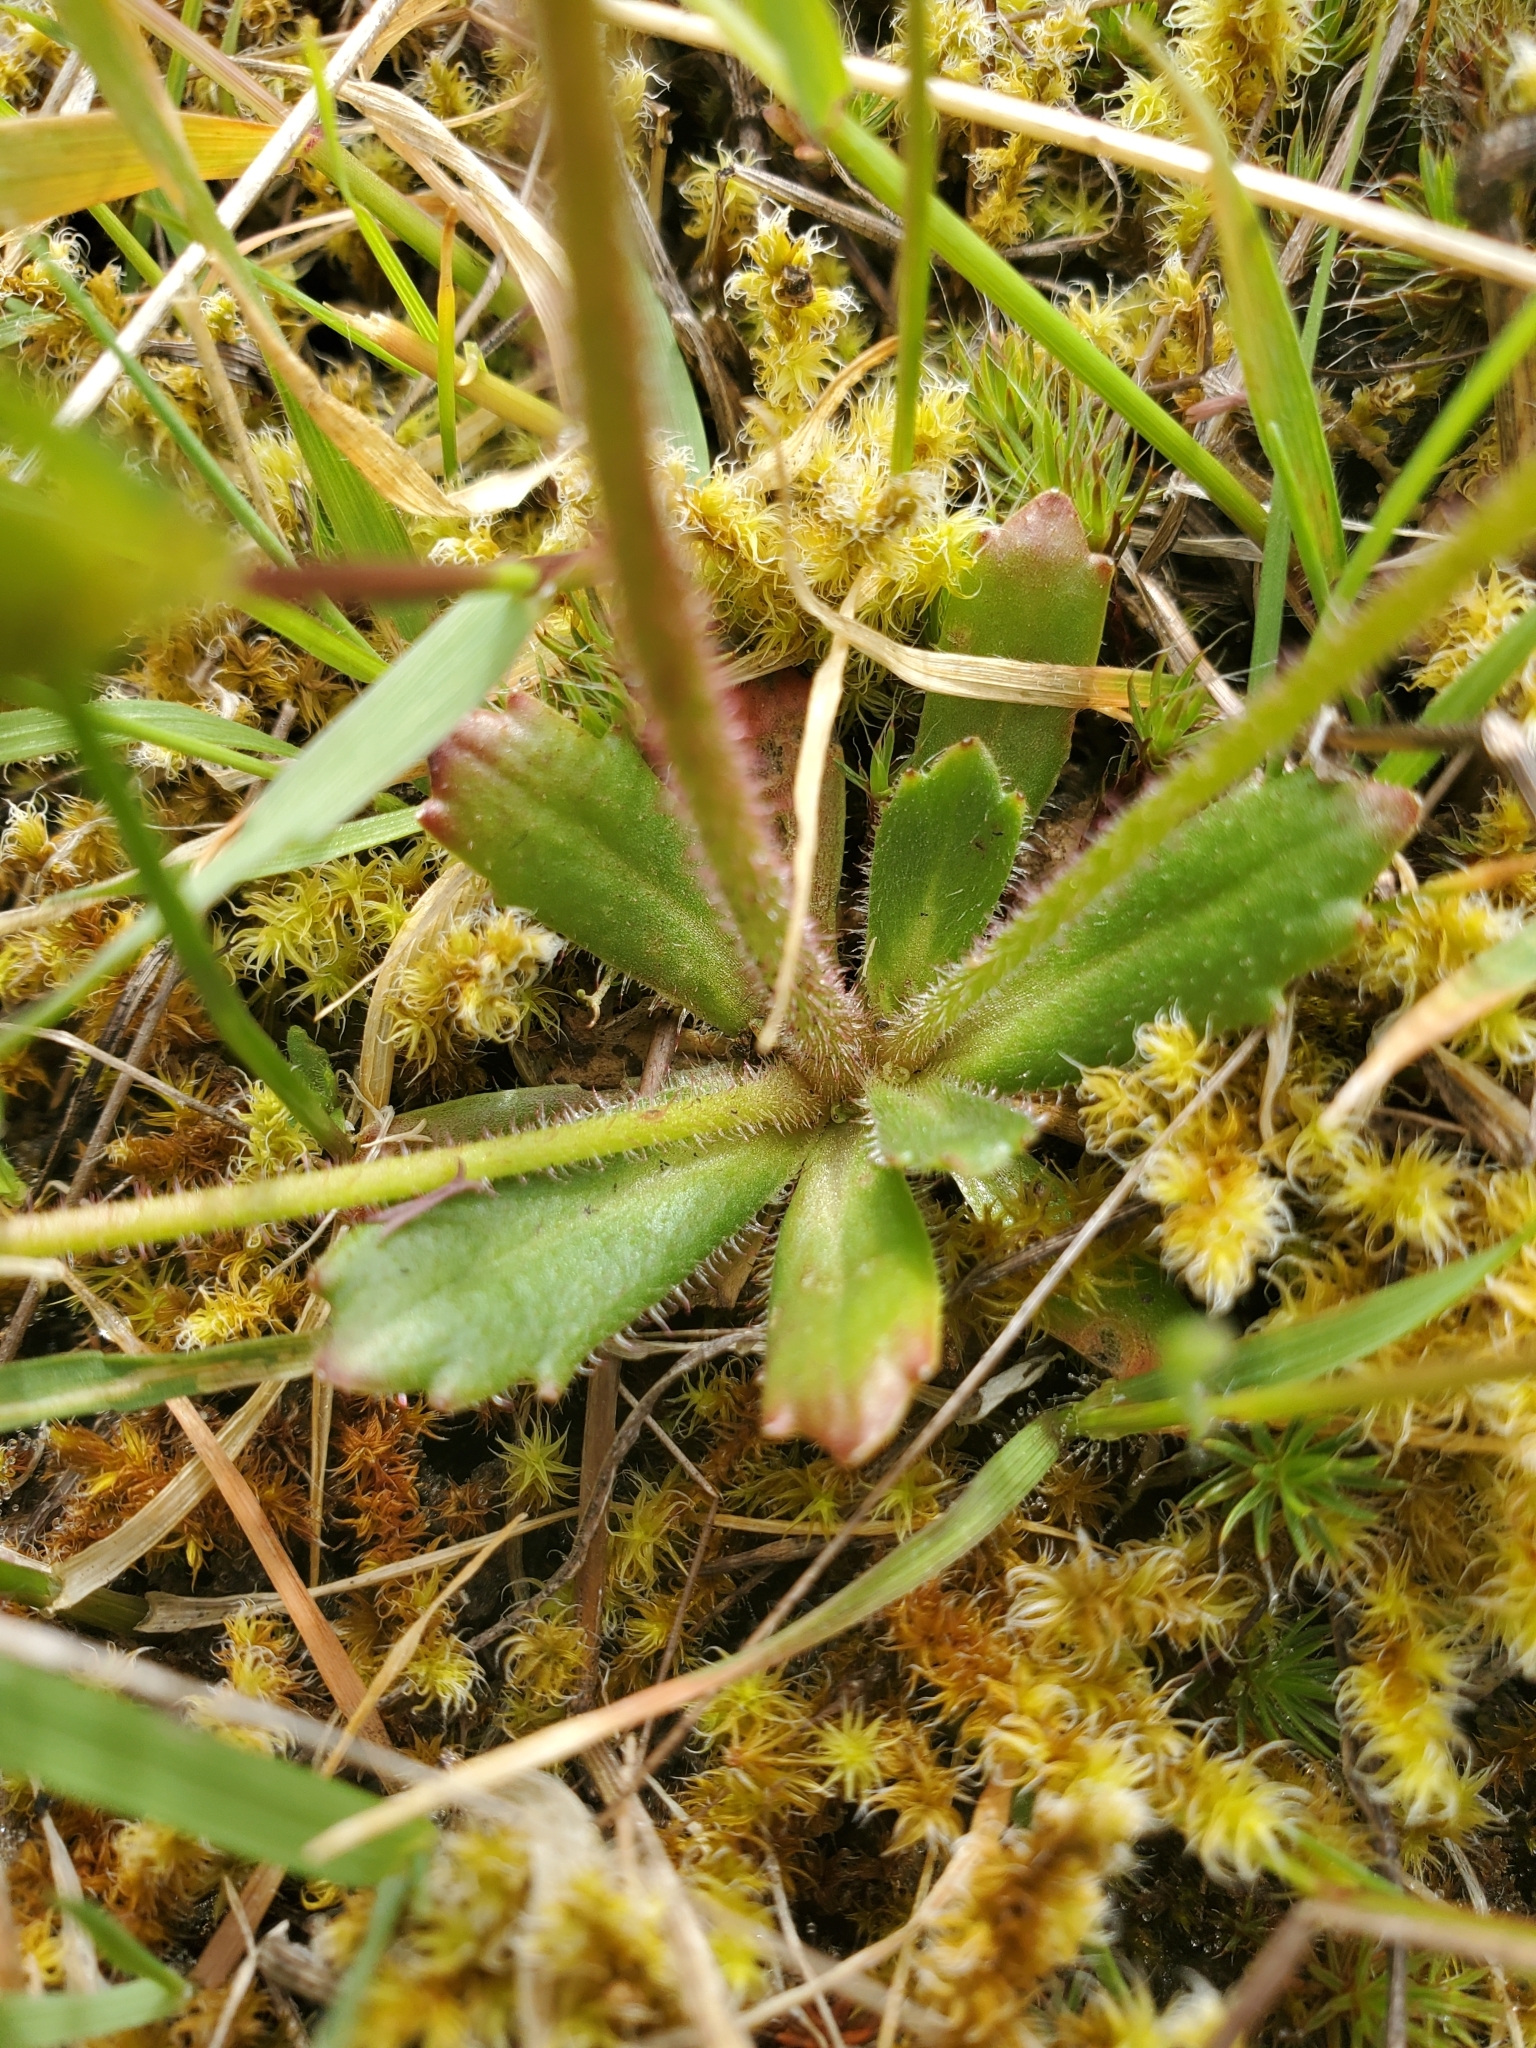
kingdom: Plantae
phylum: Tracheophyta
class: Magnoliopsida
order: Saxifragales
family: Saxifragaceae
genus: Micranthes
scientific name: Micranthes ferruginea
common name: Rusty saxifrage
